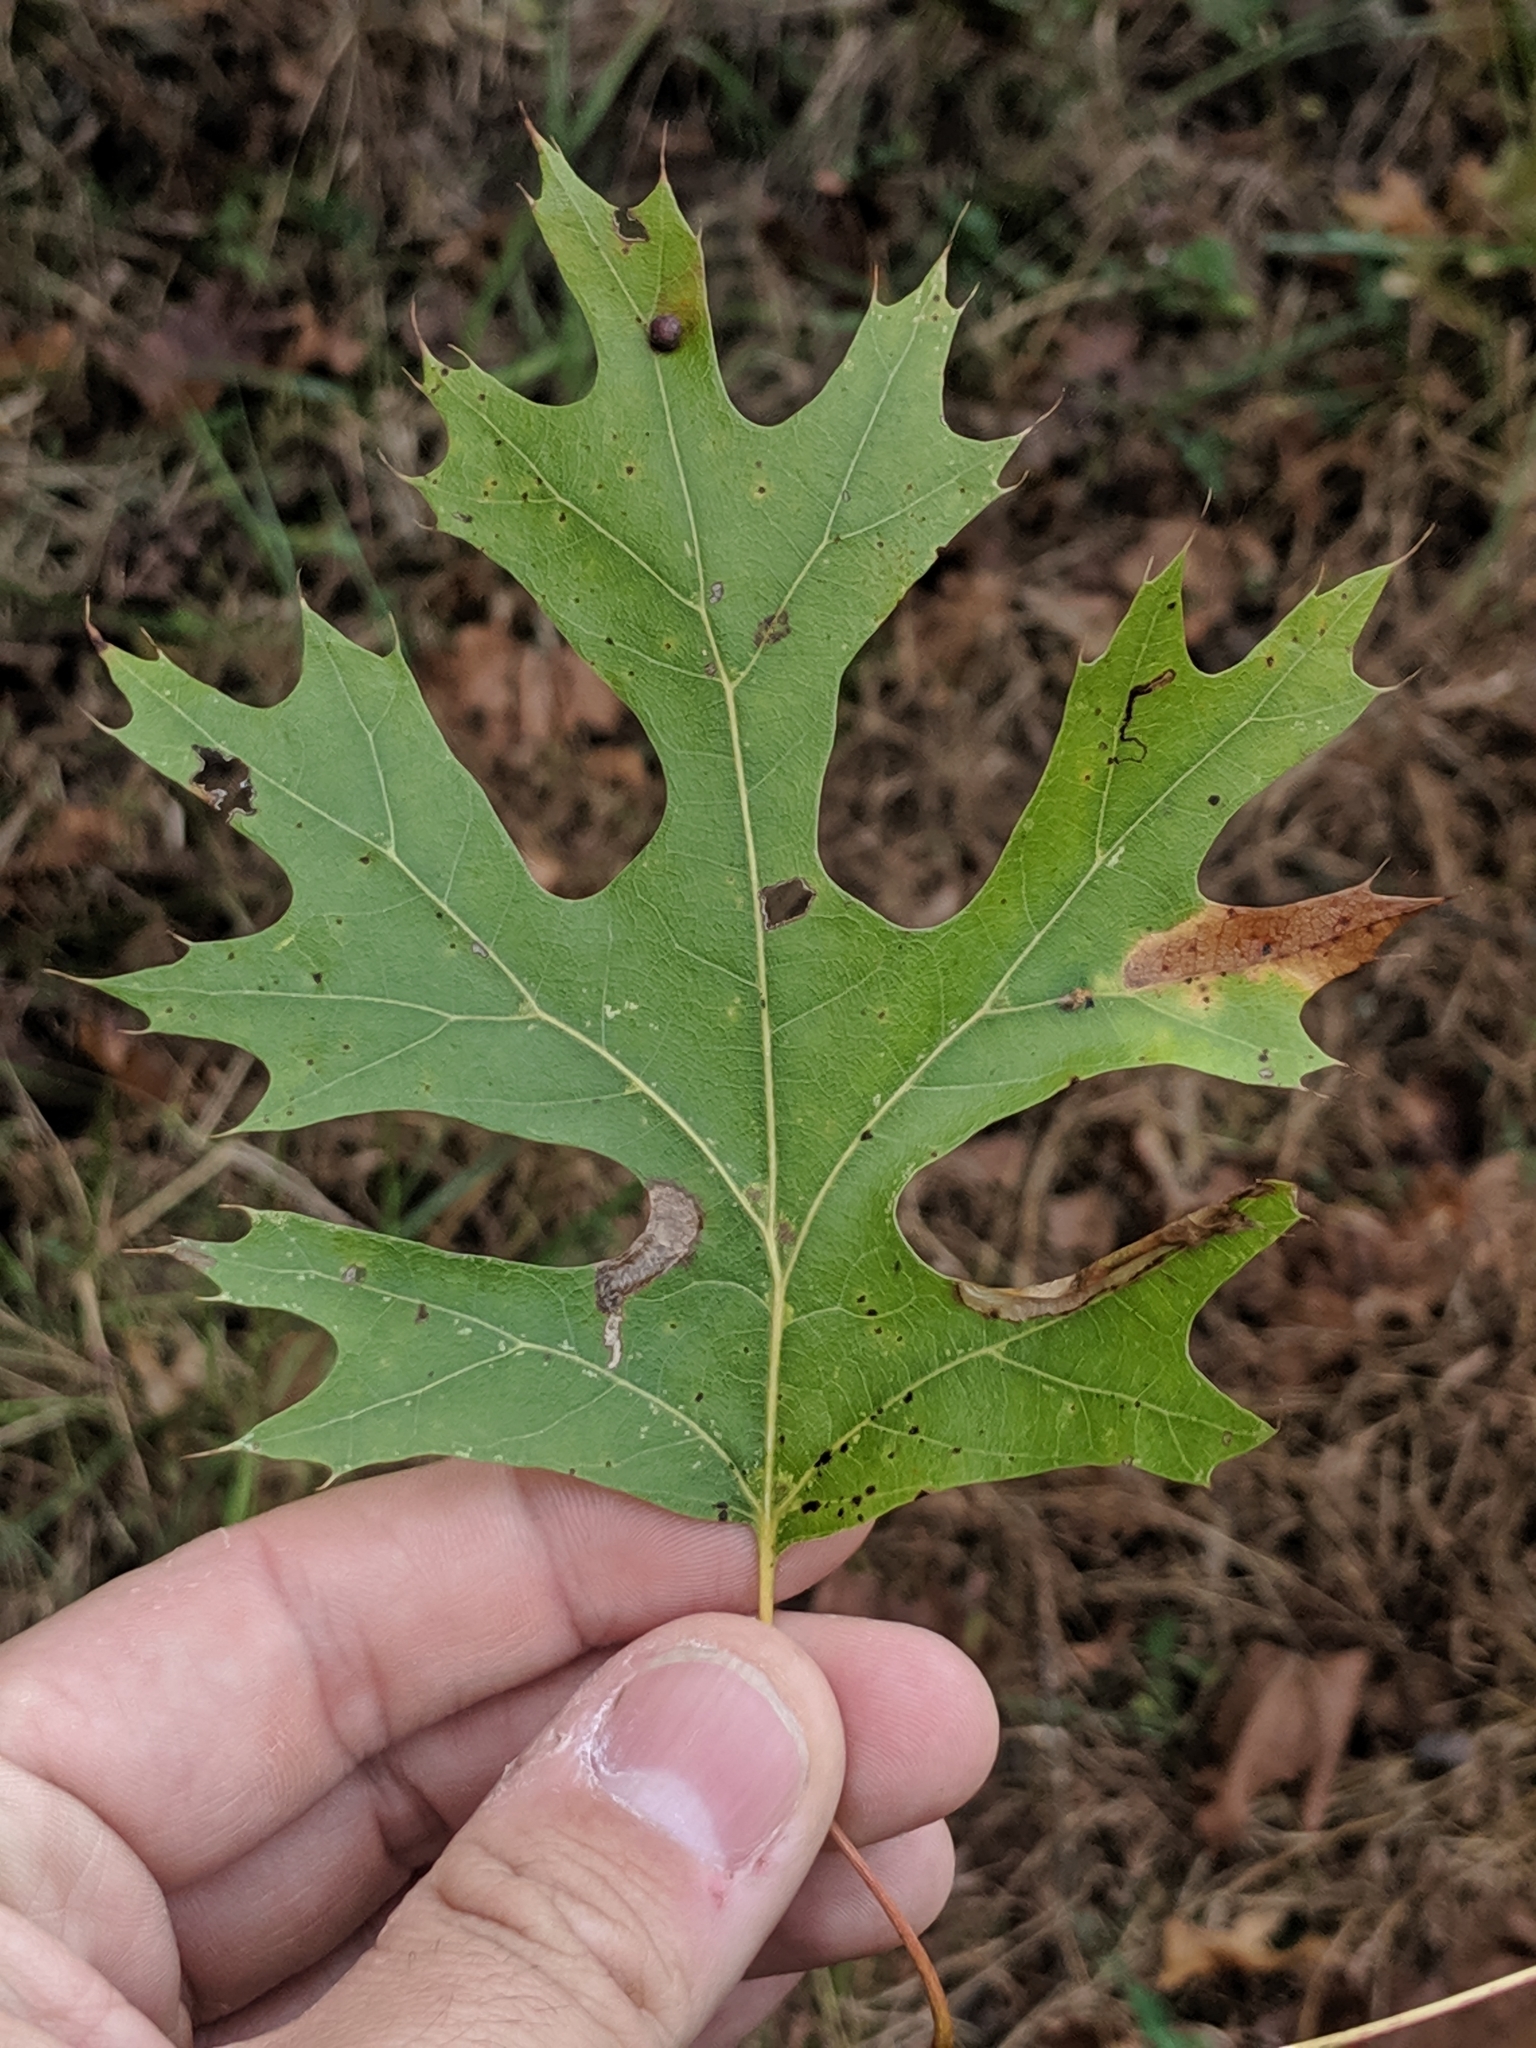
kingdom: Plantae
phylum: Tracheophyta
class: Magnoliopsida
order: Fagales
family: Fagaceae
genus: Quercus
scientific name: Quercus shumardii
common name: Shumard oak
